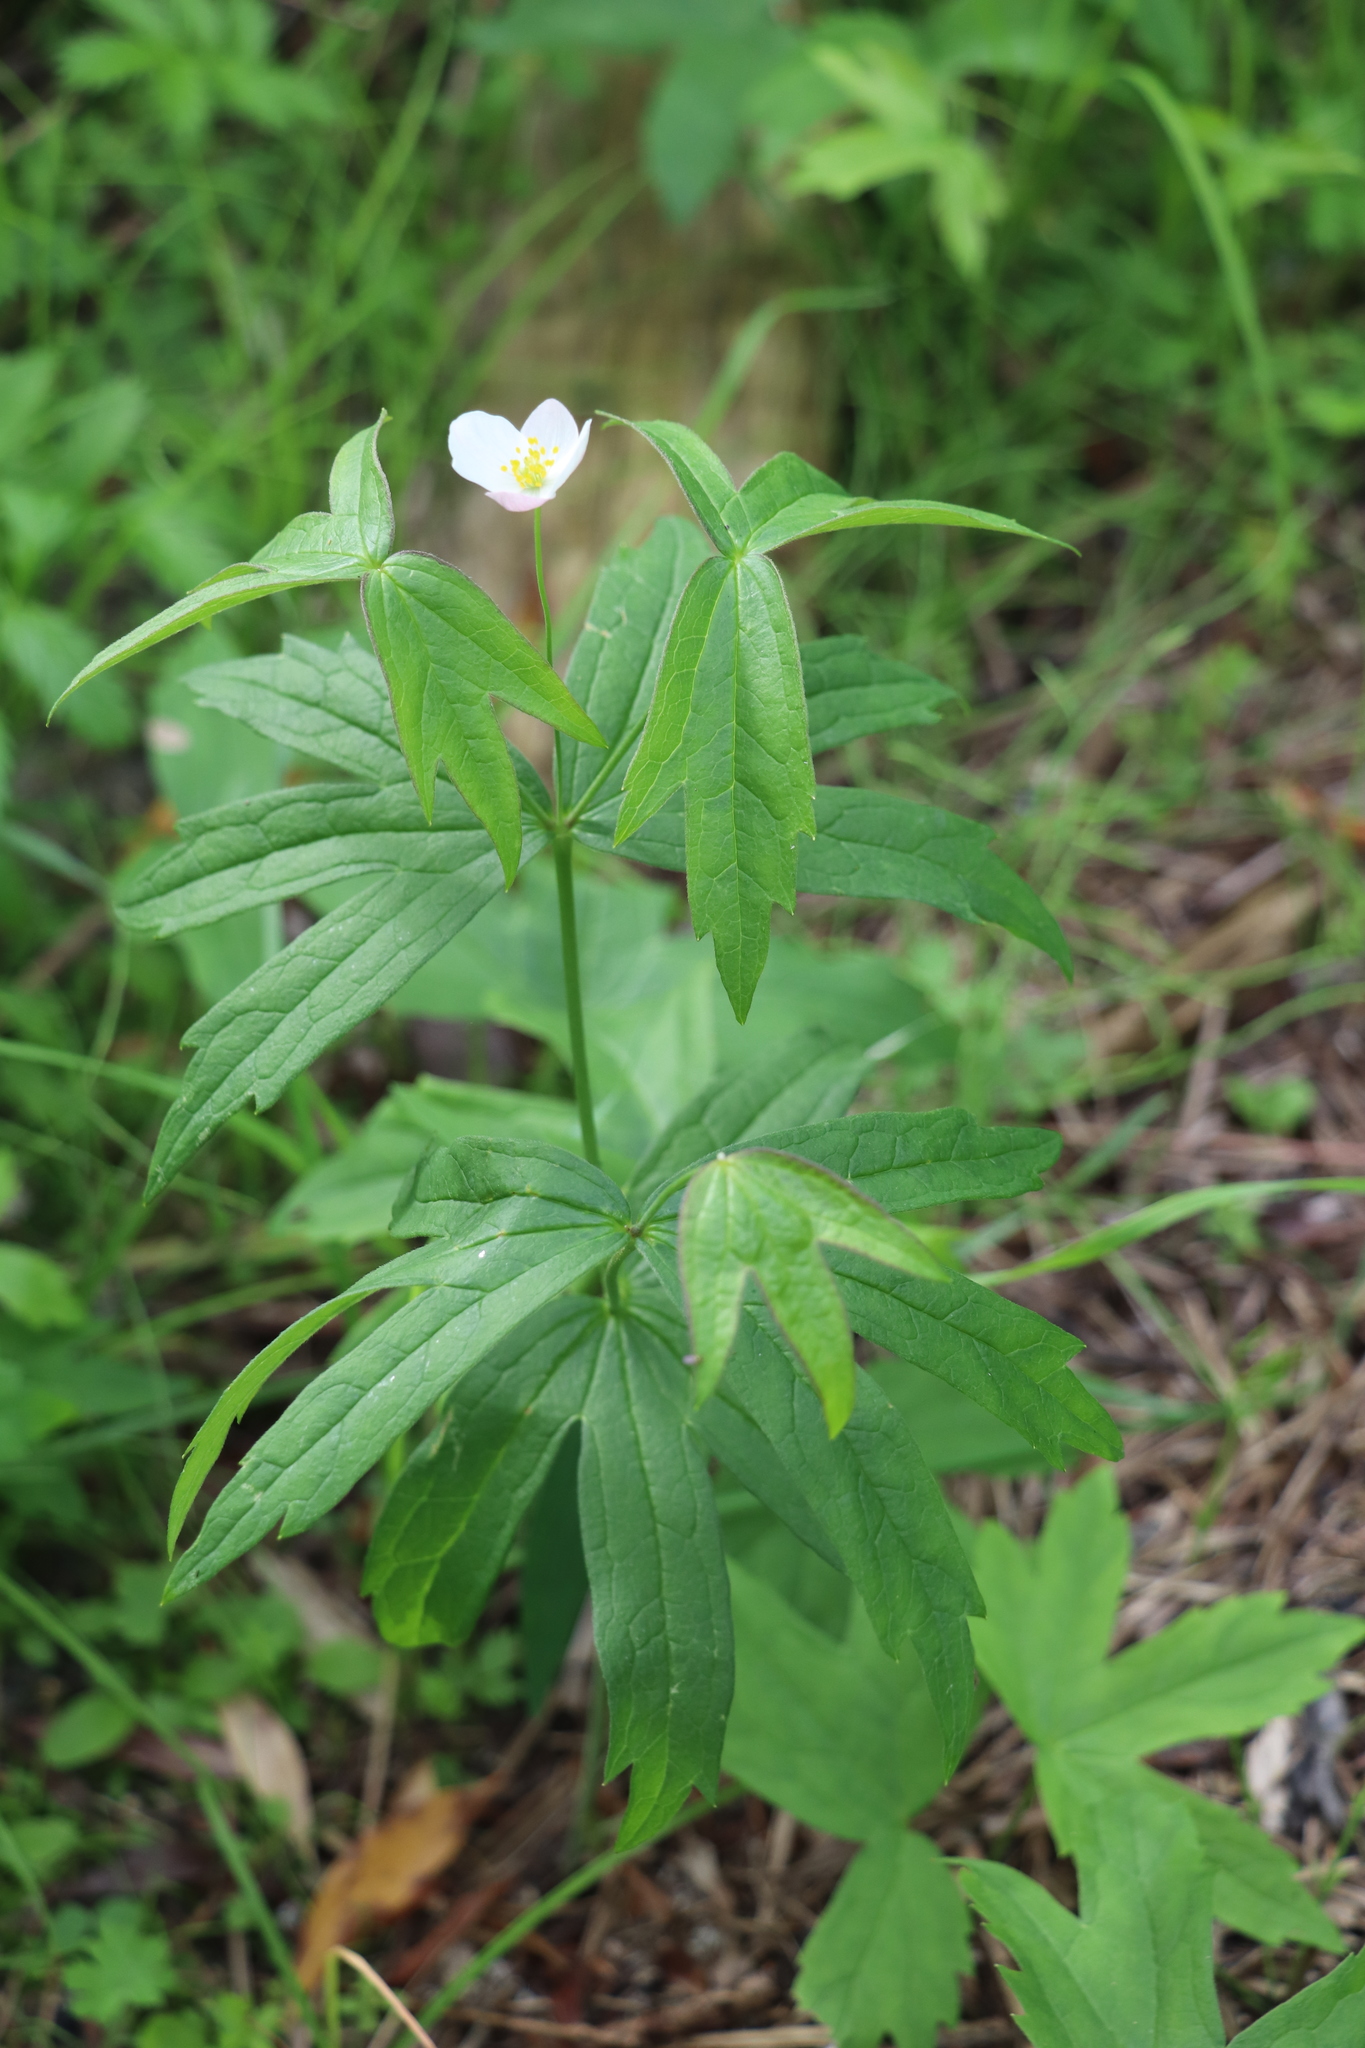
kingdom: Plantae
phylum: Tracheophyta
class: Magnoliopsida
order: Ranunculales
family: Ranunculaceae
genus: Anemonastrum
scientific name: Anemonastrum dichotomum
